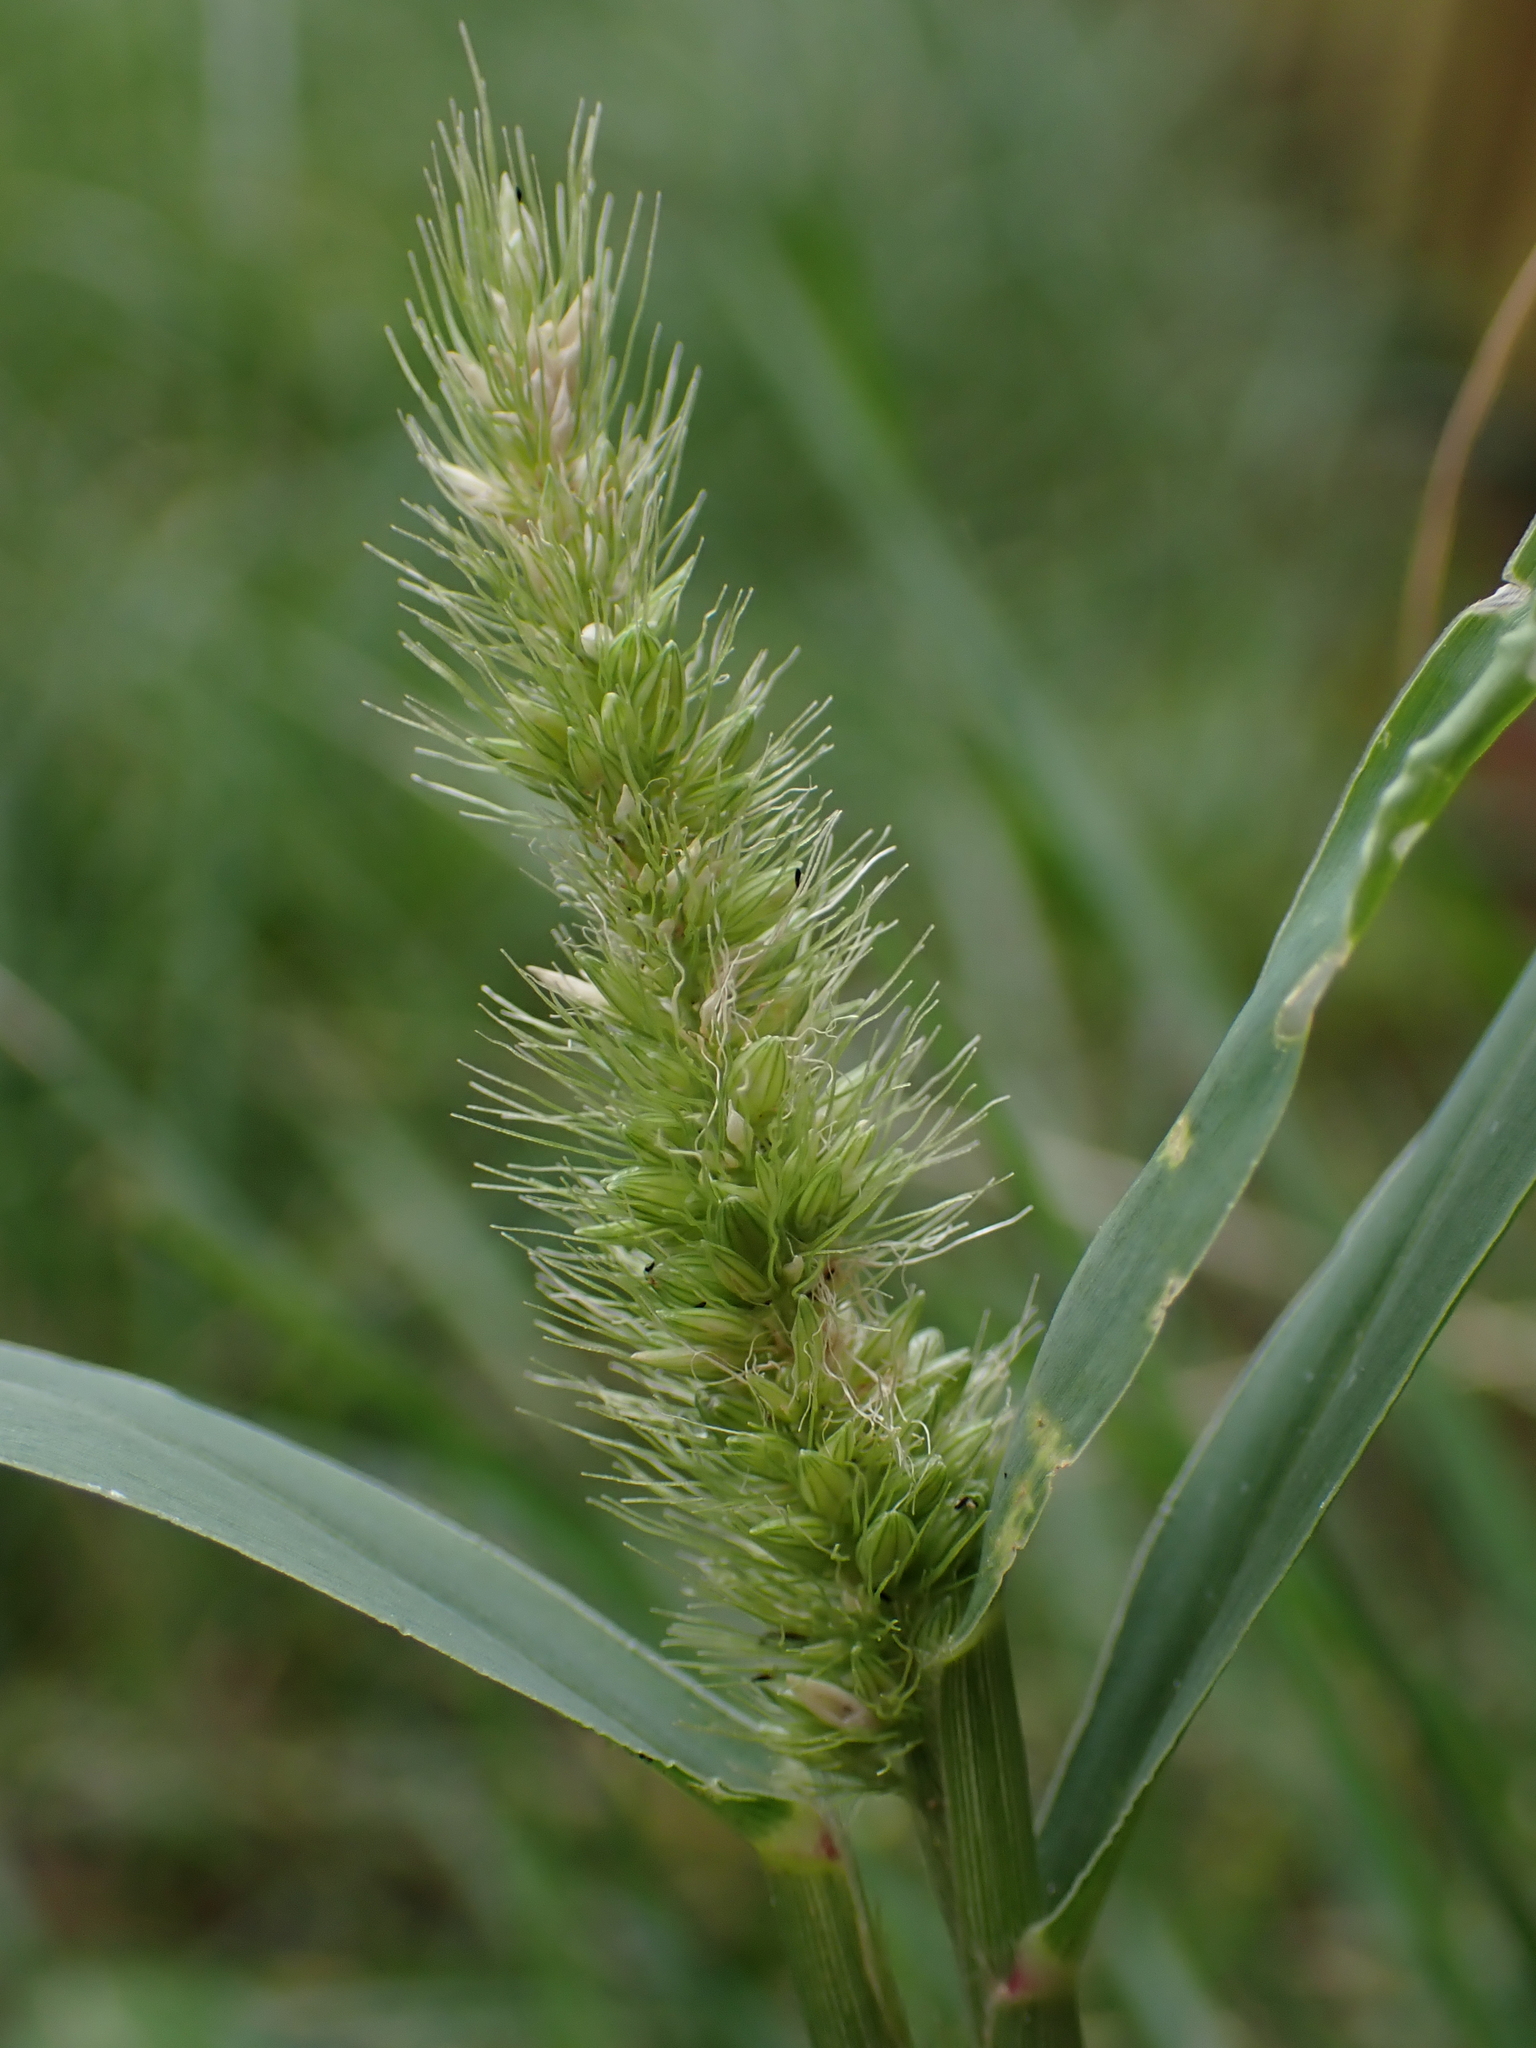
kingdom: Plantae
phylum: Tracheophyta
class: Liliopsida
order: Poales
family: Poaceae
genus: Setaria
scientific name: Setaria viridis
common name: Green bristlegrass
